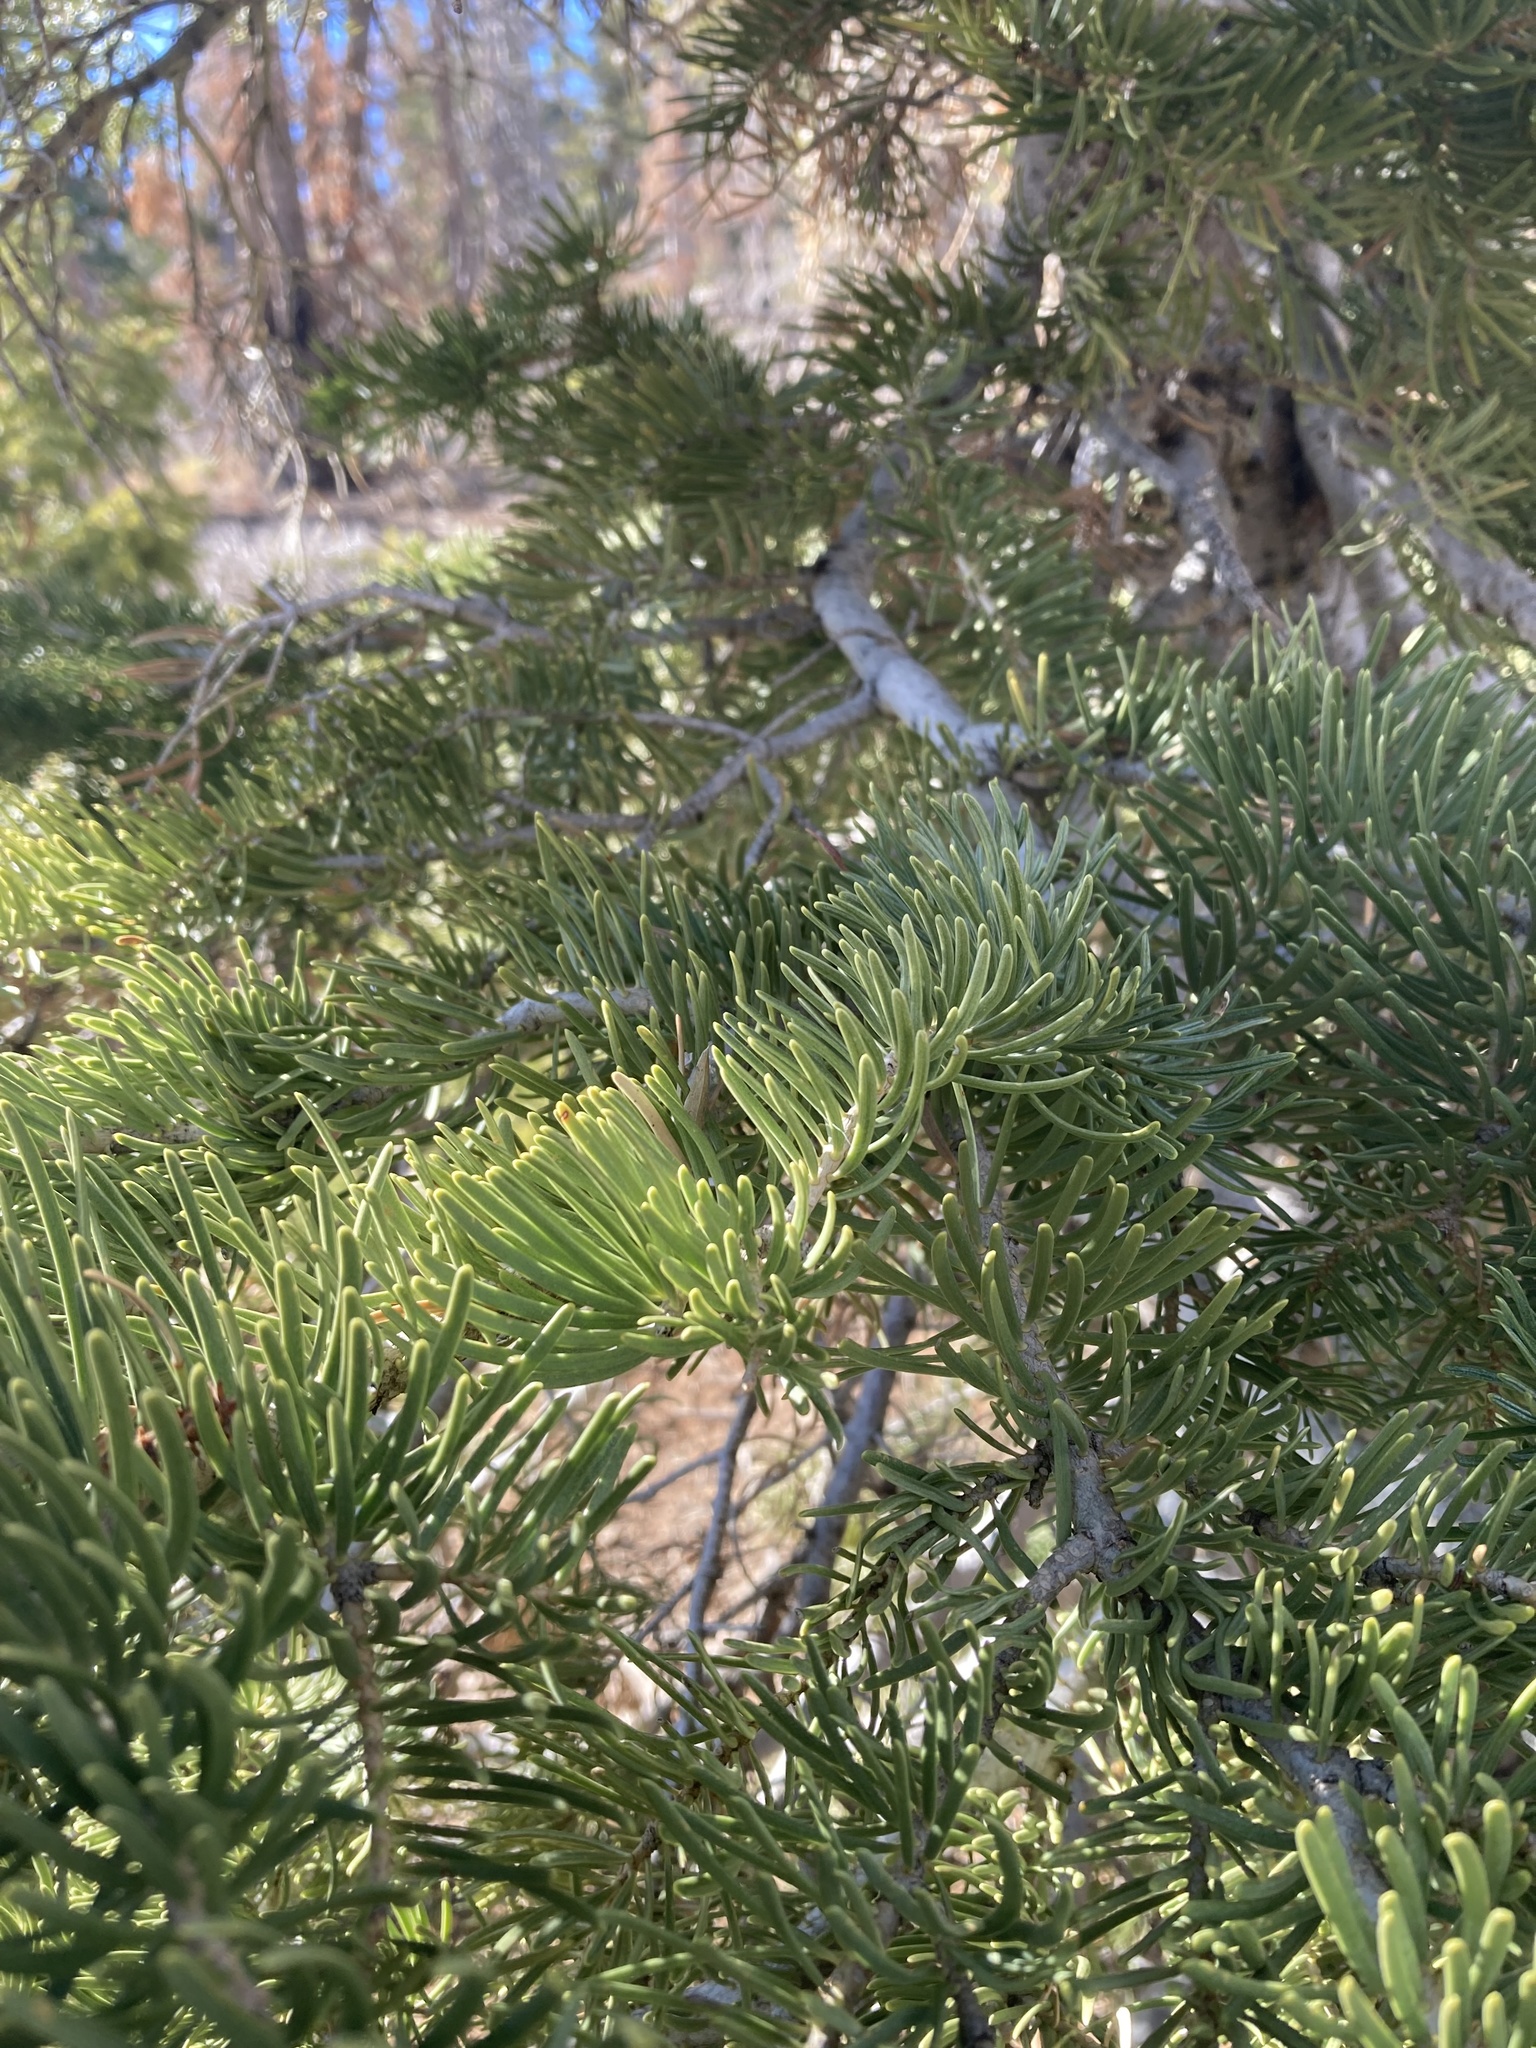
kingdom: Plantae
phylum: Tracheophyta
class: Pinopsida
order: Pinales
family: Pinaceae
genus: Abies
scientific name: Abies concolor
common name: Colorado fir
